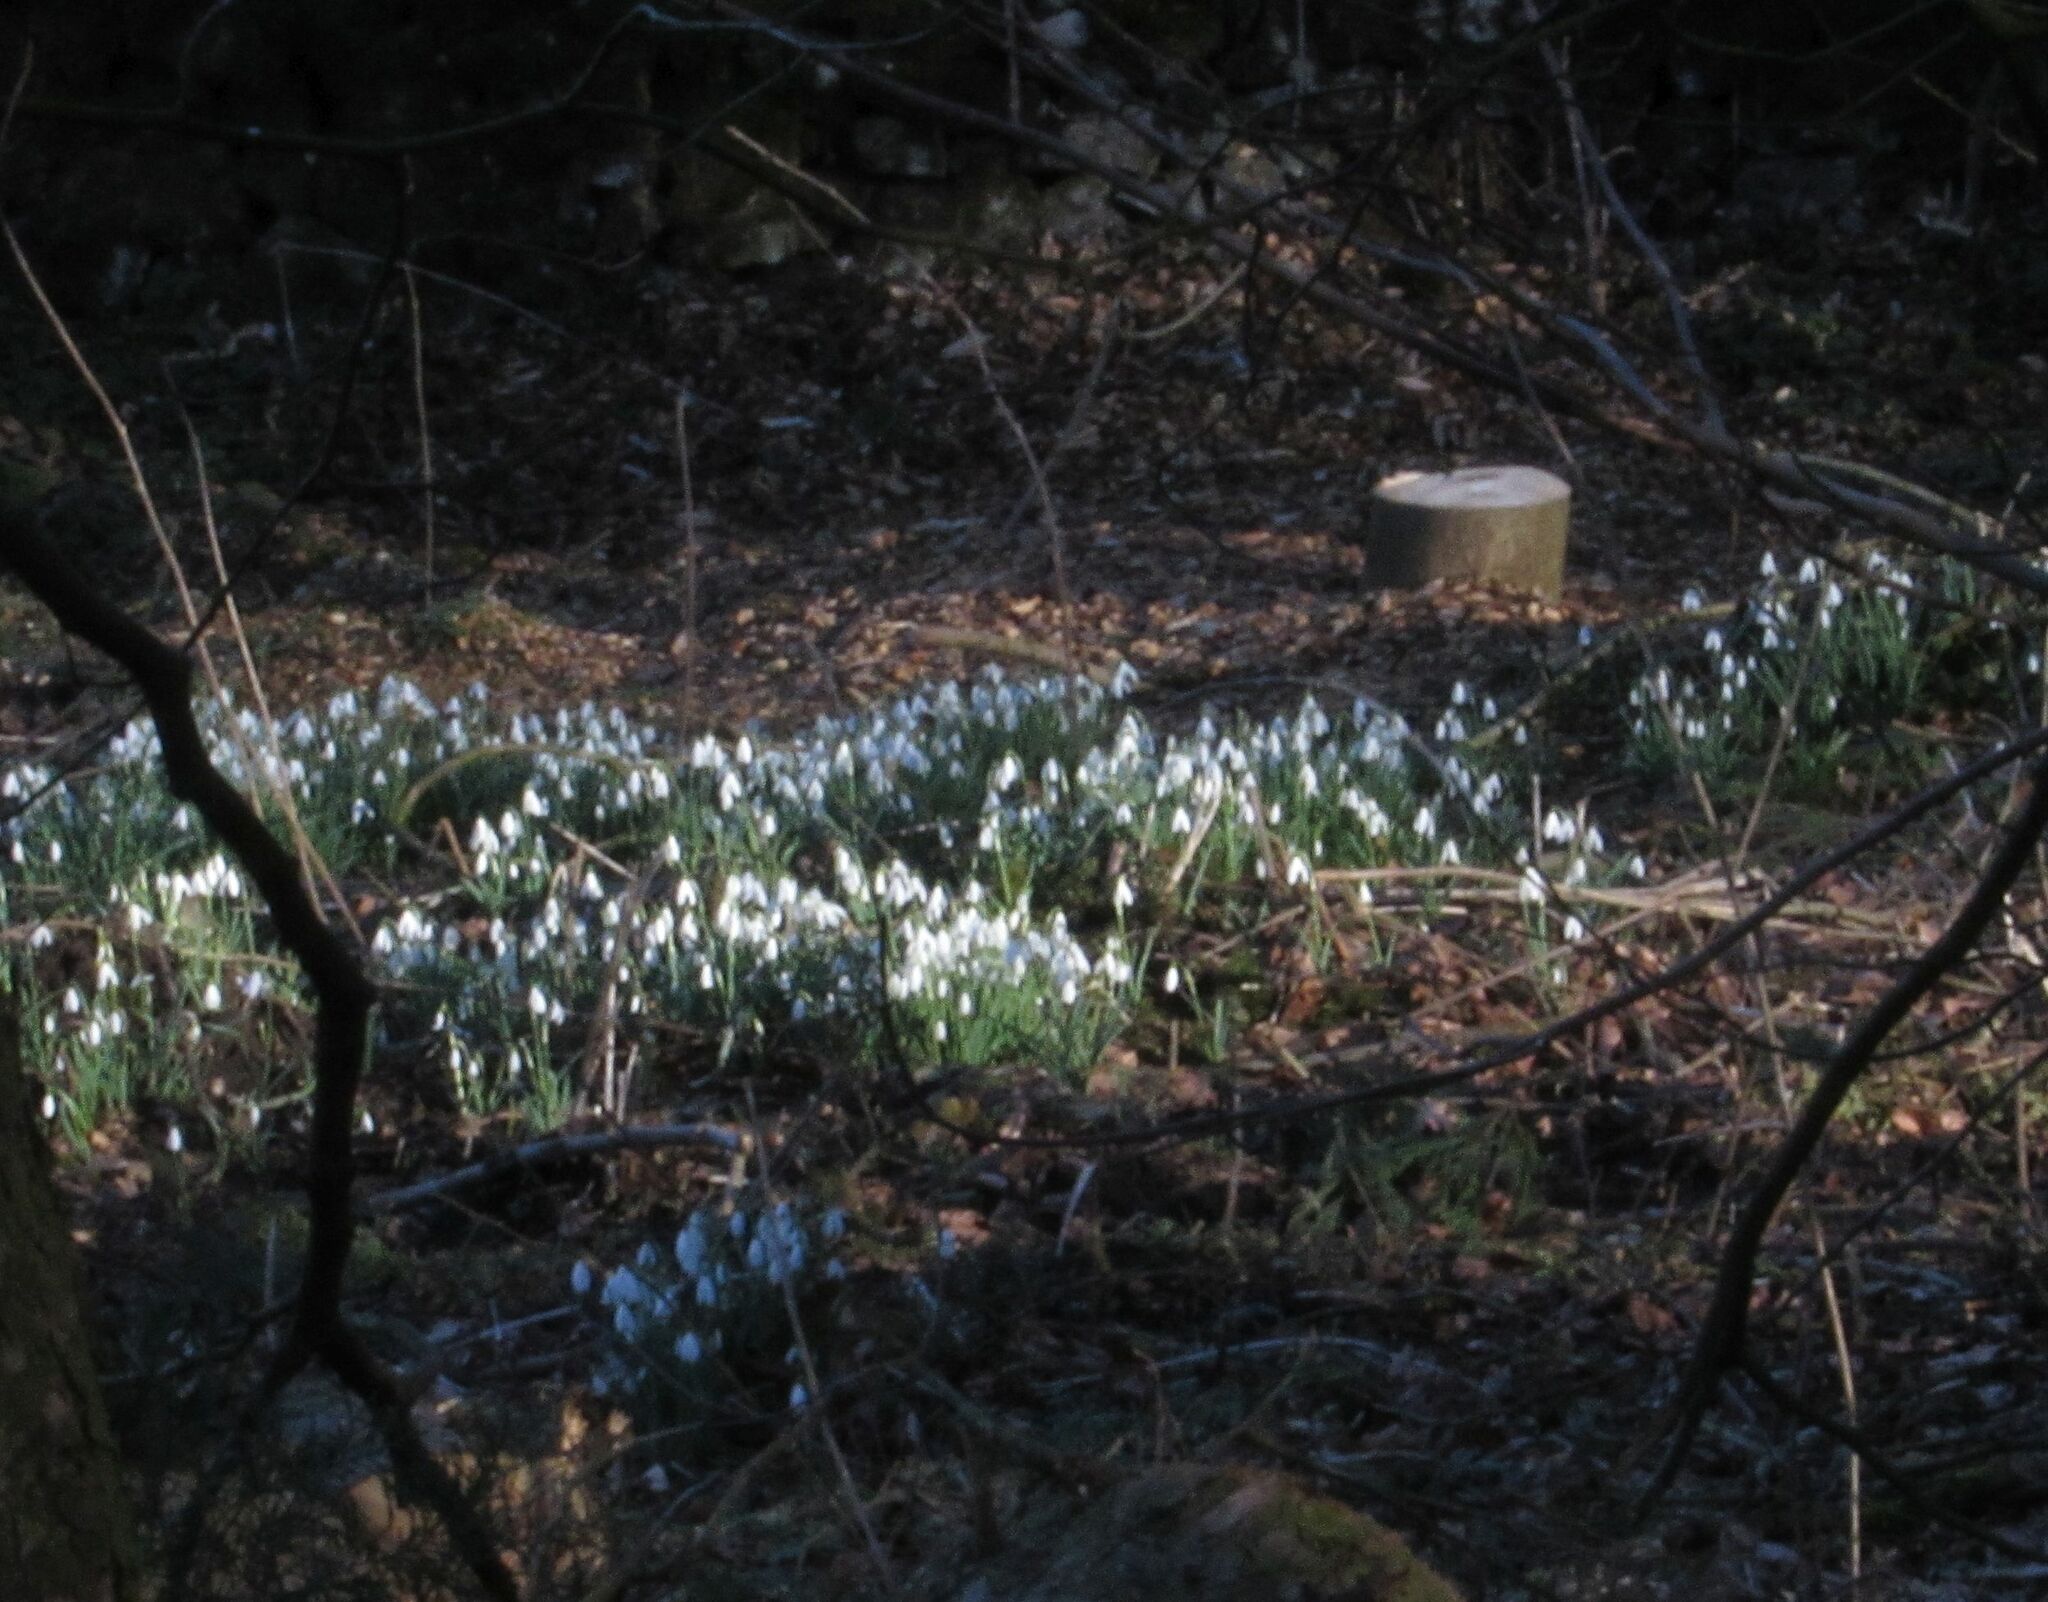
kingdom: Plantae
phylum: Tracheophyta
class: Liliopsida
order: Asparagales
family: Amaryllidaceae
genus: Galanthus
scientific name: Galanthus nivalis
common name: Snowdrop
